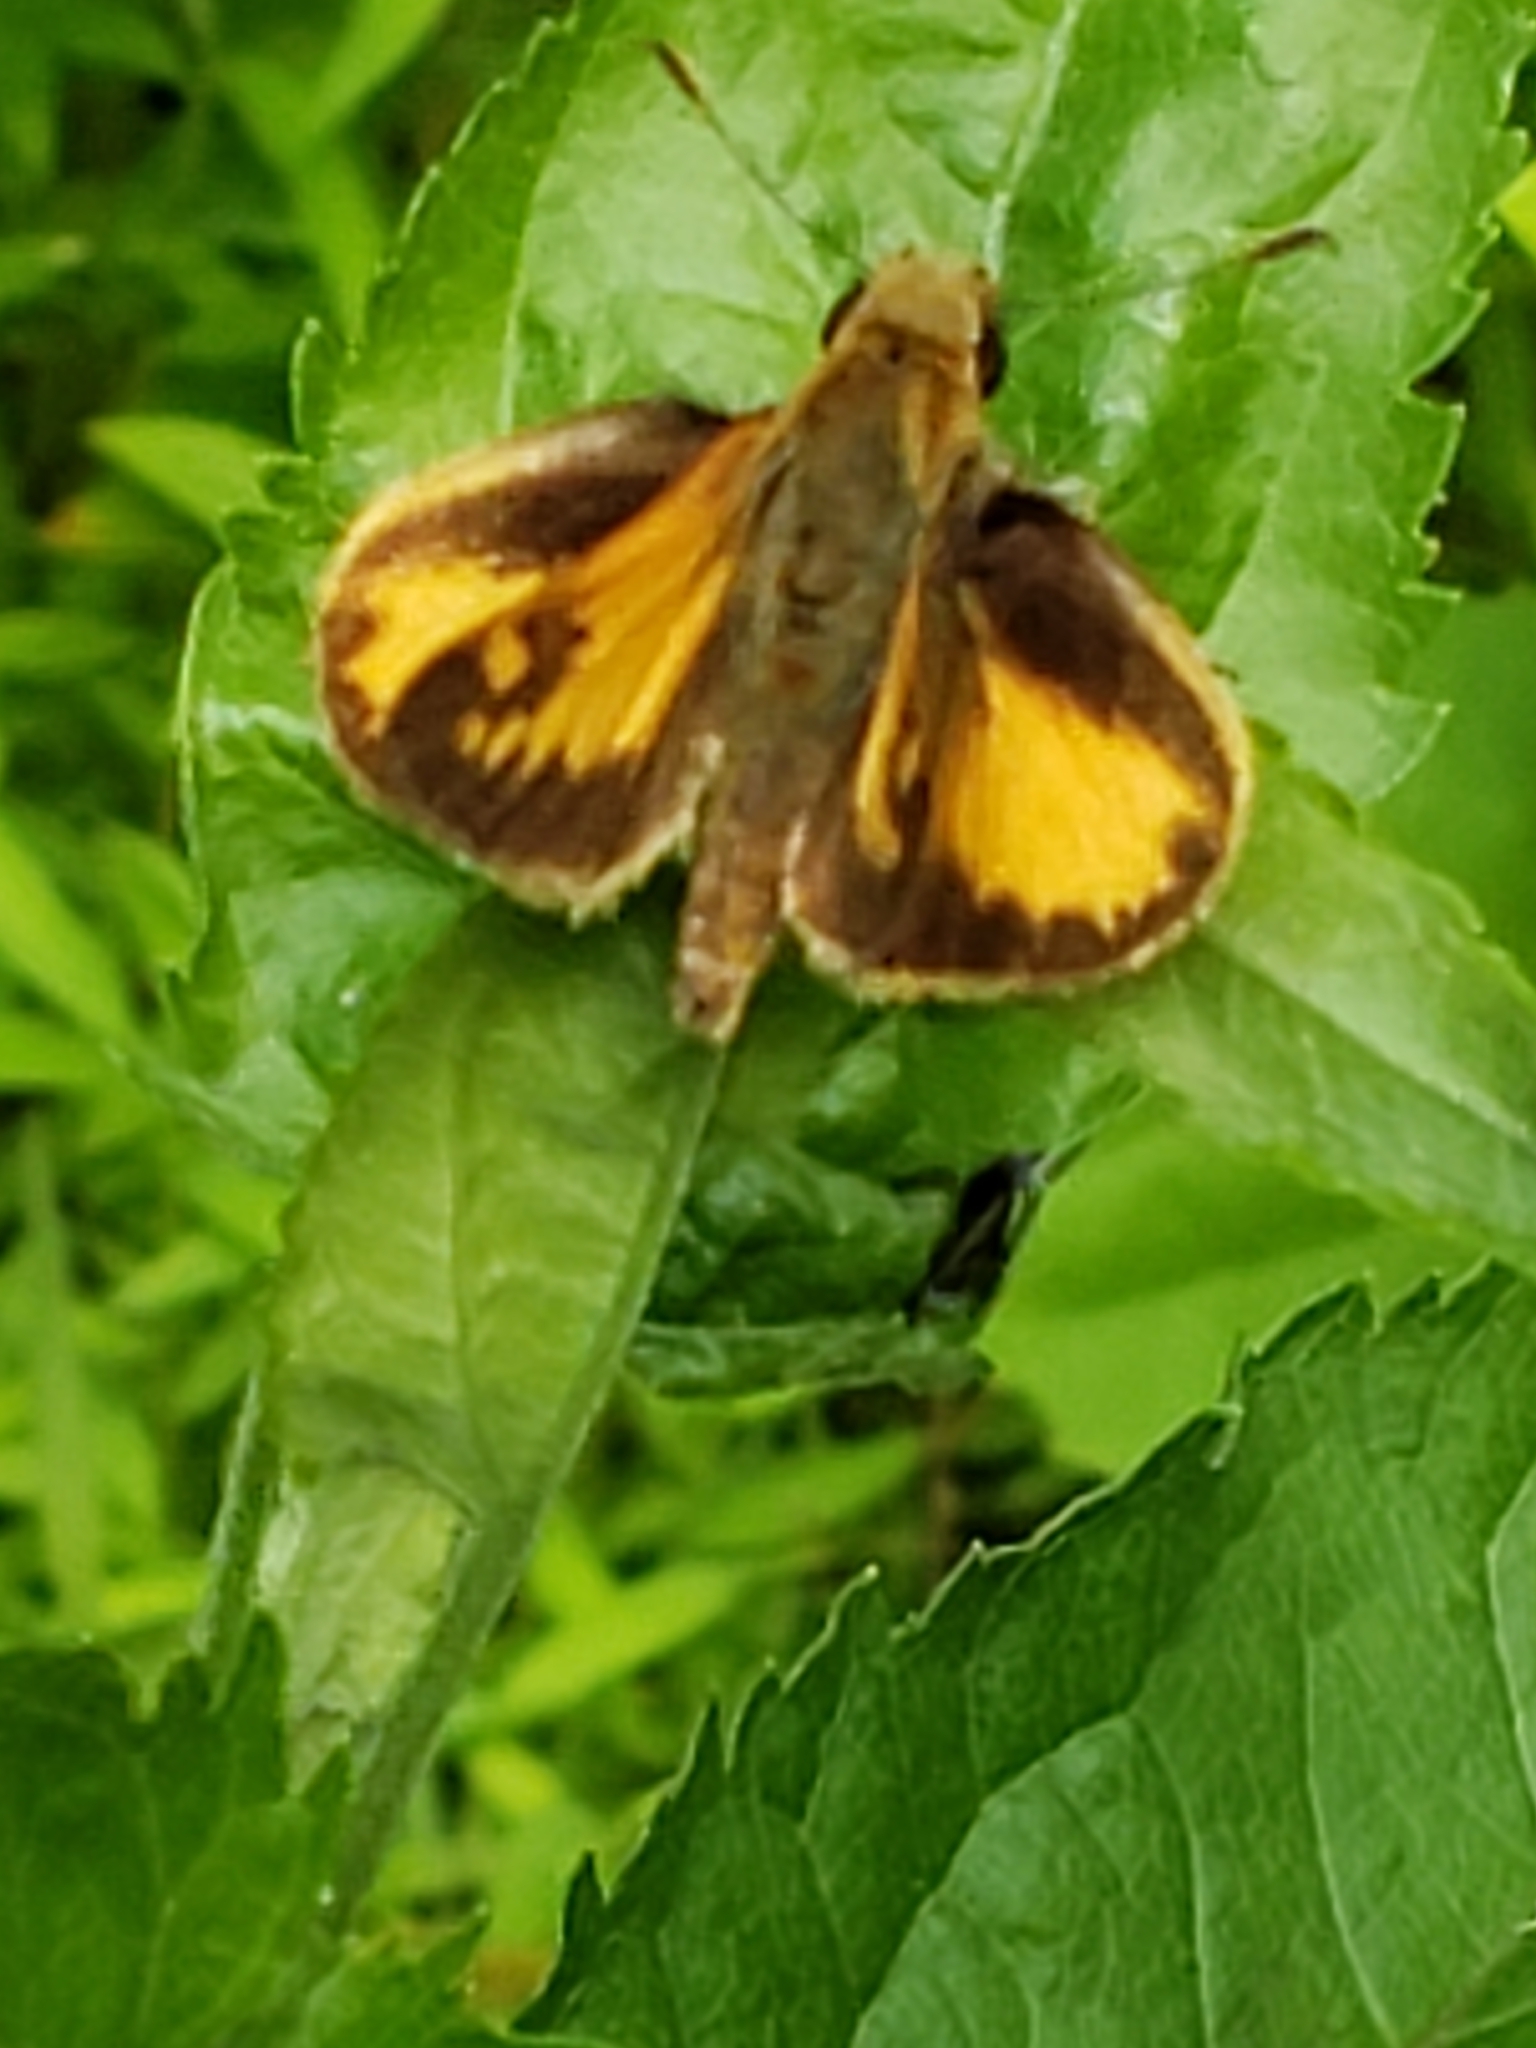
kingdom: Animalia
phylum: Arthropoda
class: Insecta
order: Lepidoptera
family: Hesperiidae
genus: Lon
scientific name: Lon zabulon
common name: Zabulon skipper
